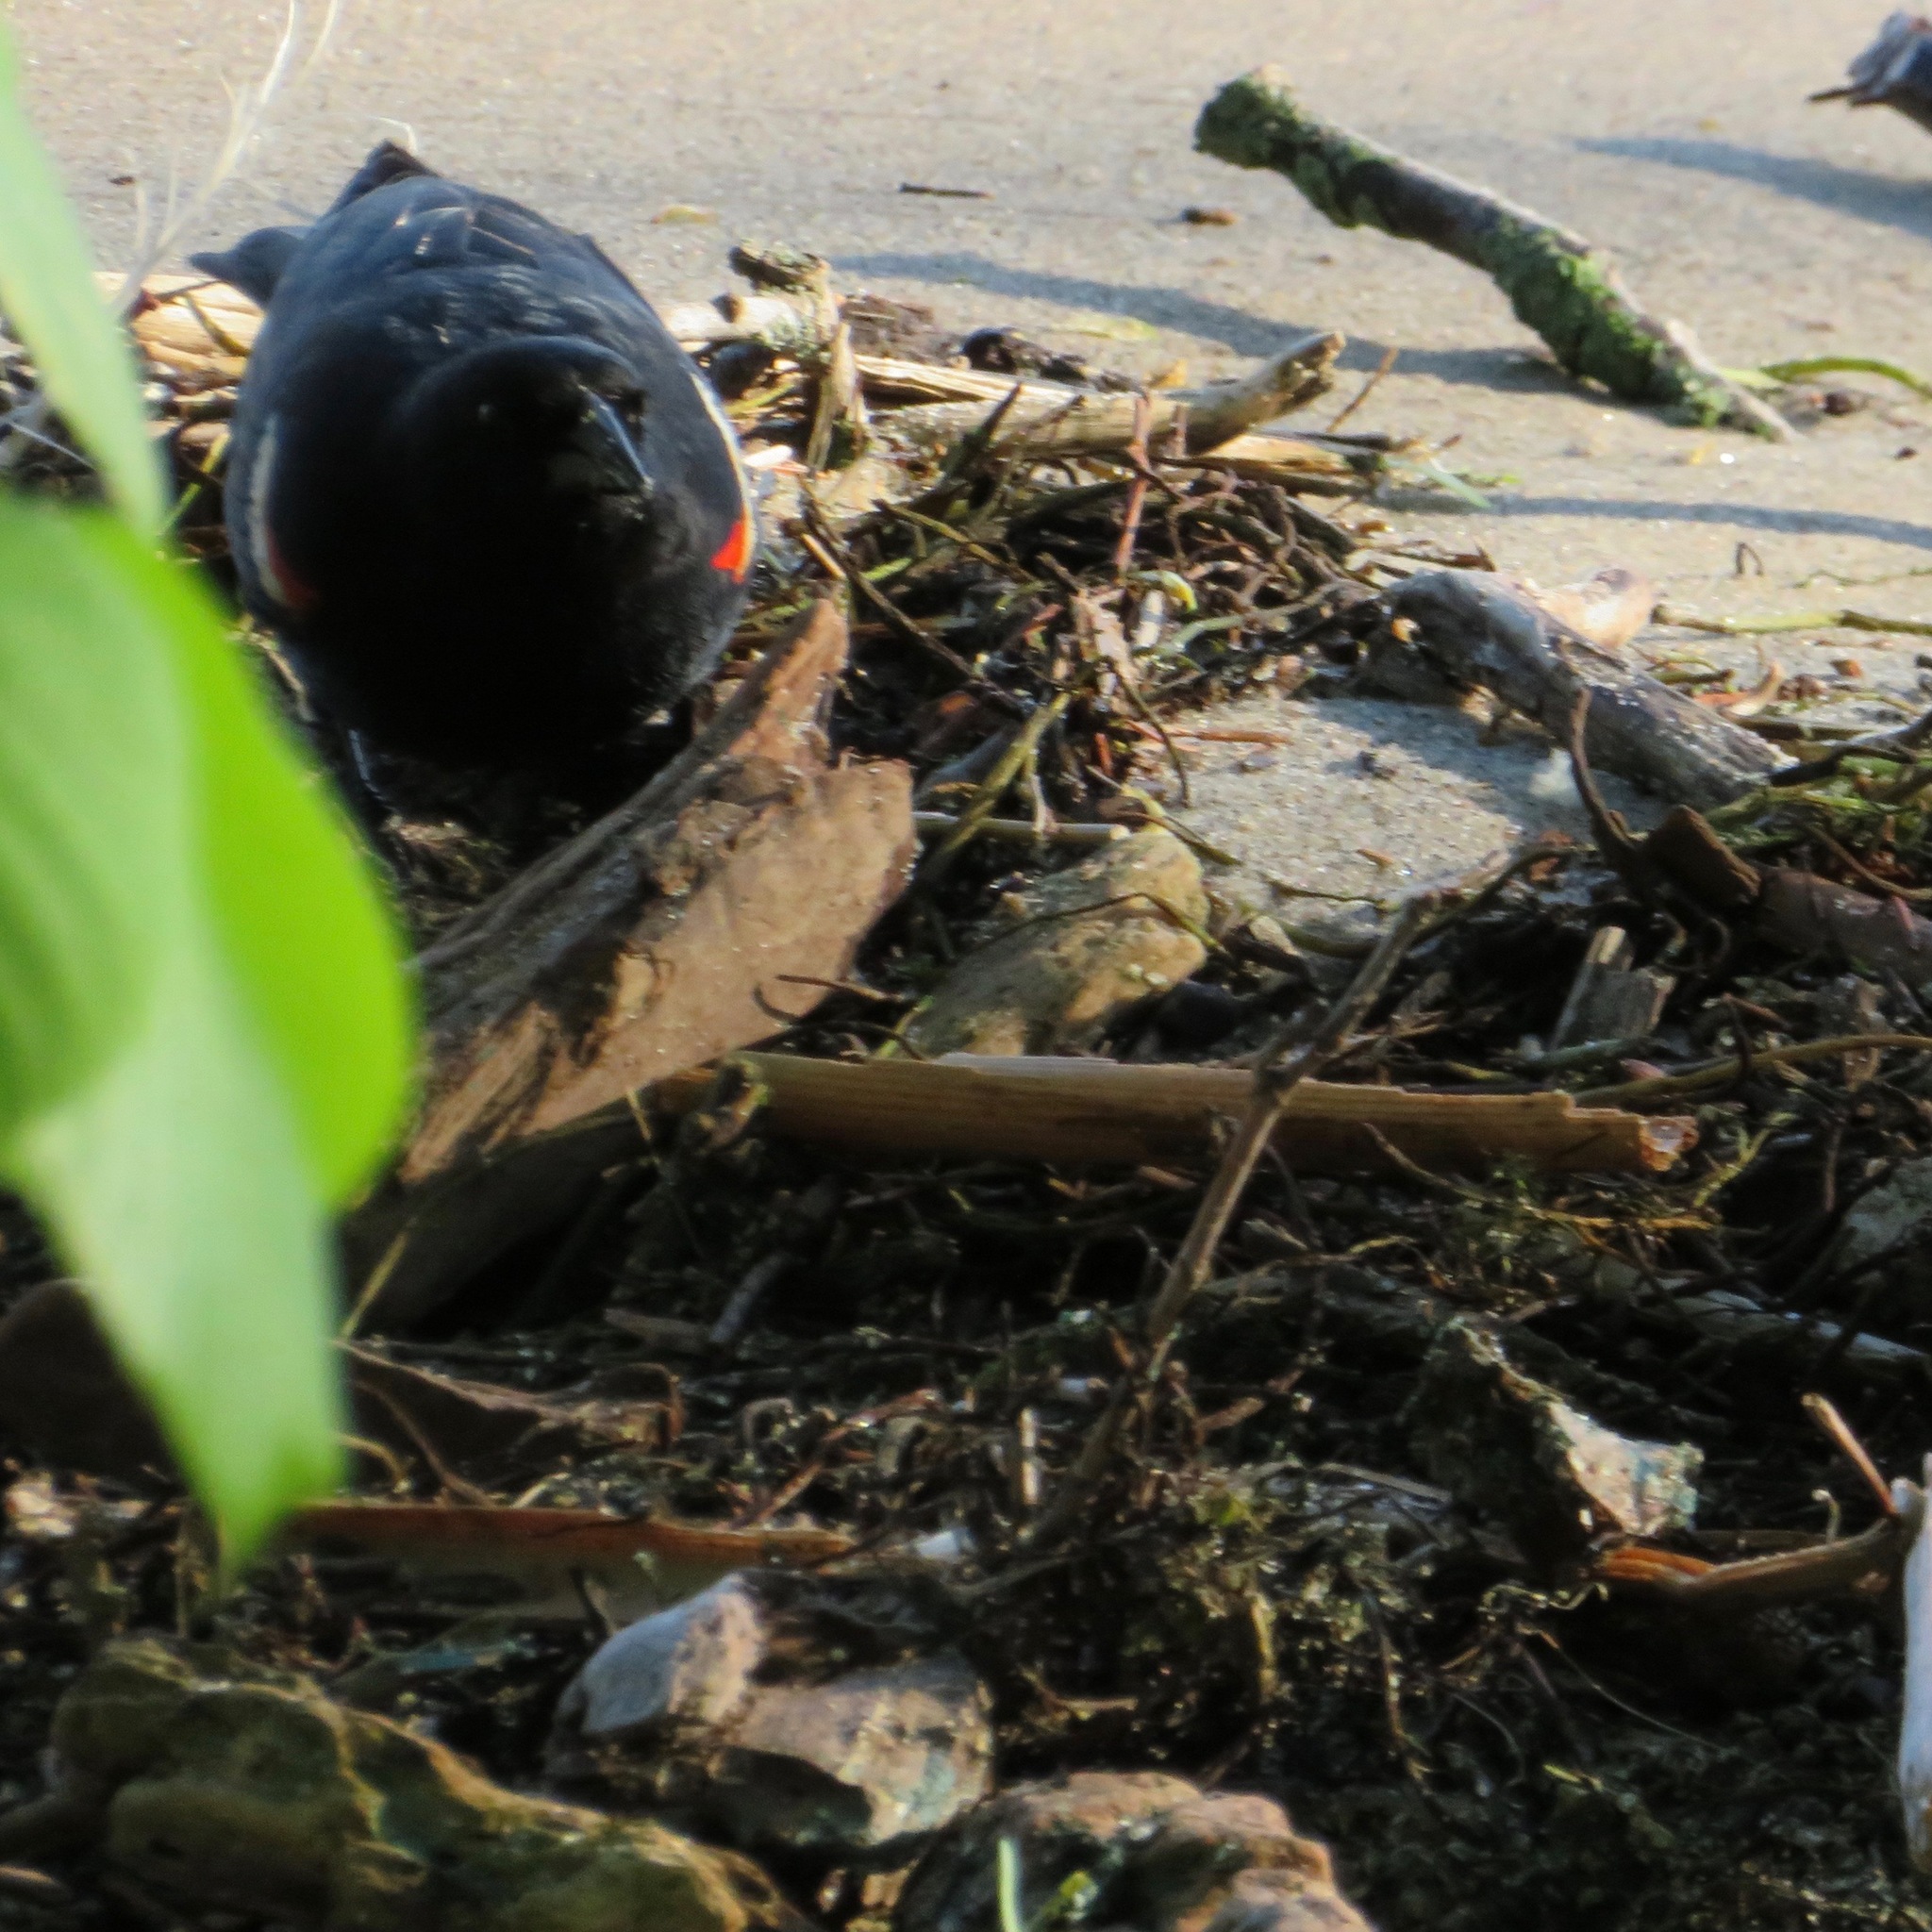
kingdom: Animalia
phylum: Chordata
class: Aves
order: Passeriformes
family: Icteridae
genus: Agelaius
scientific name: Agelaius phoeniceus
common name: Red-winged blackbird
